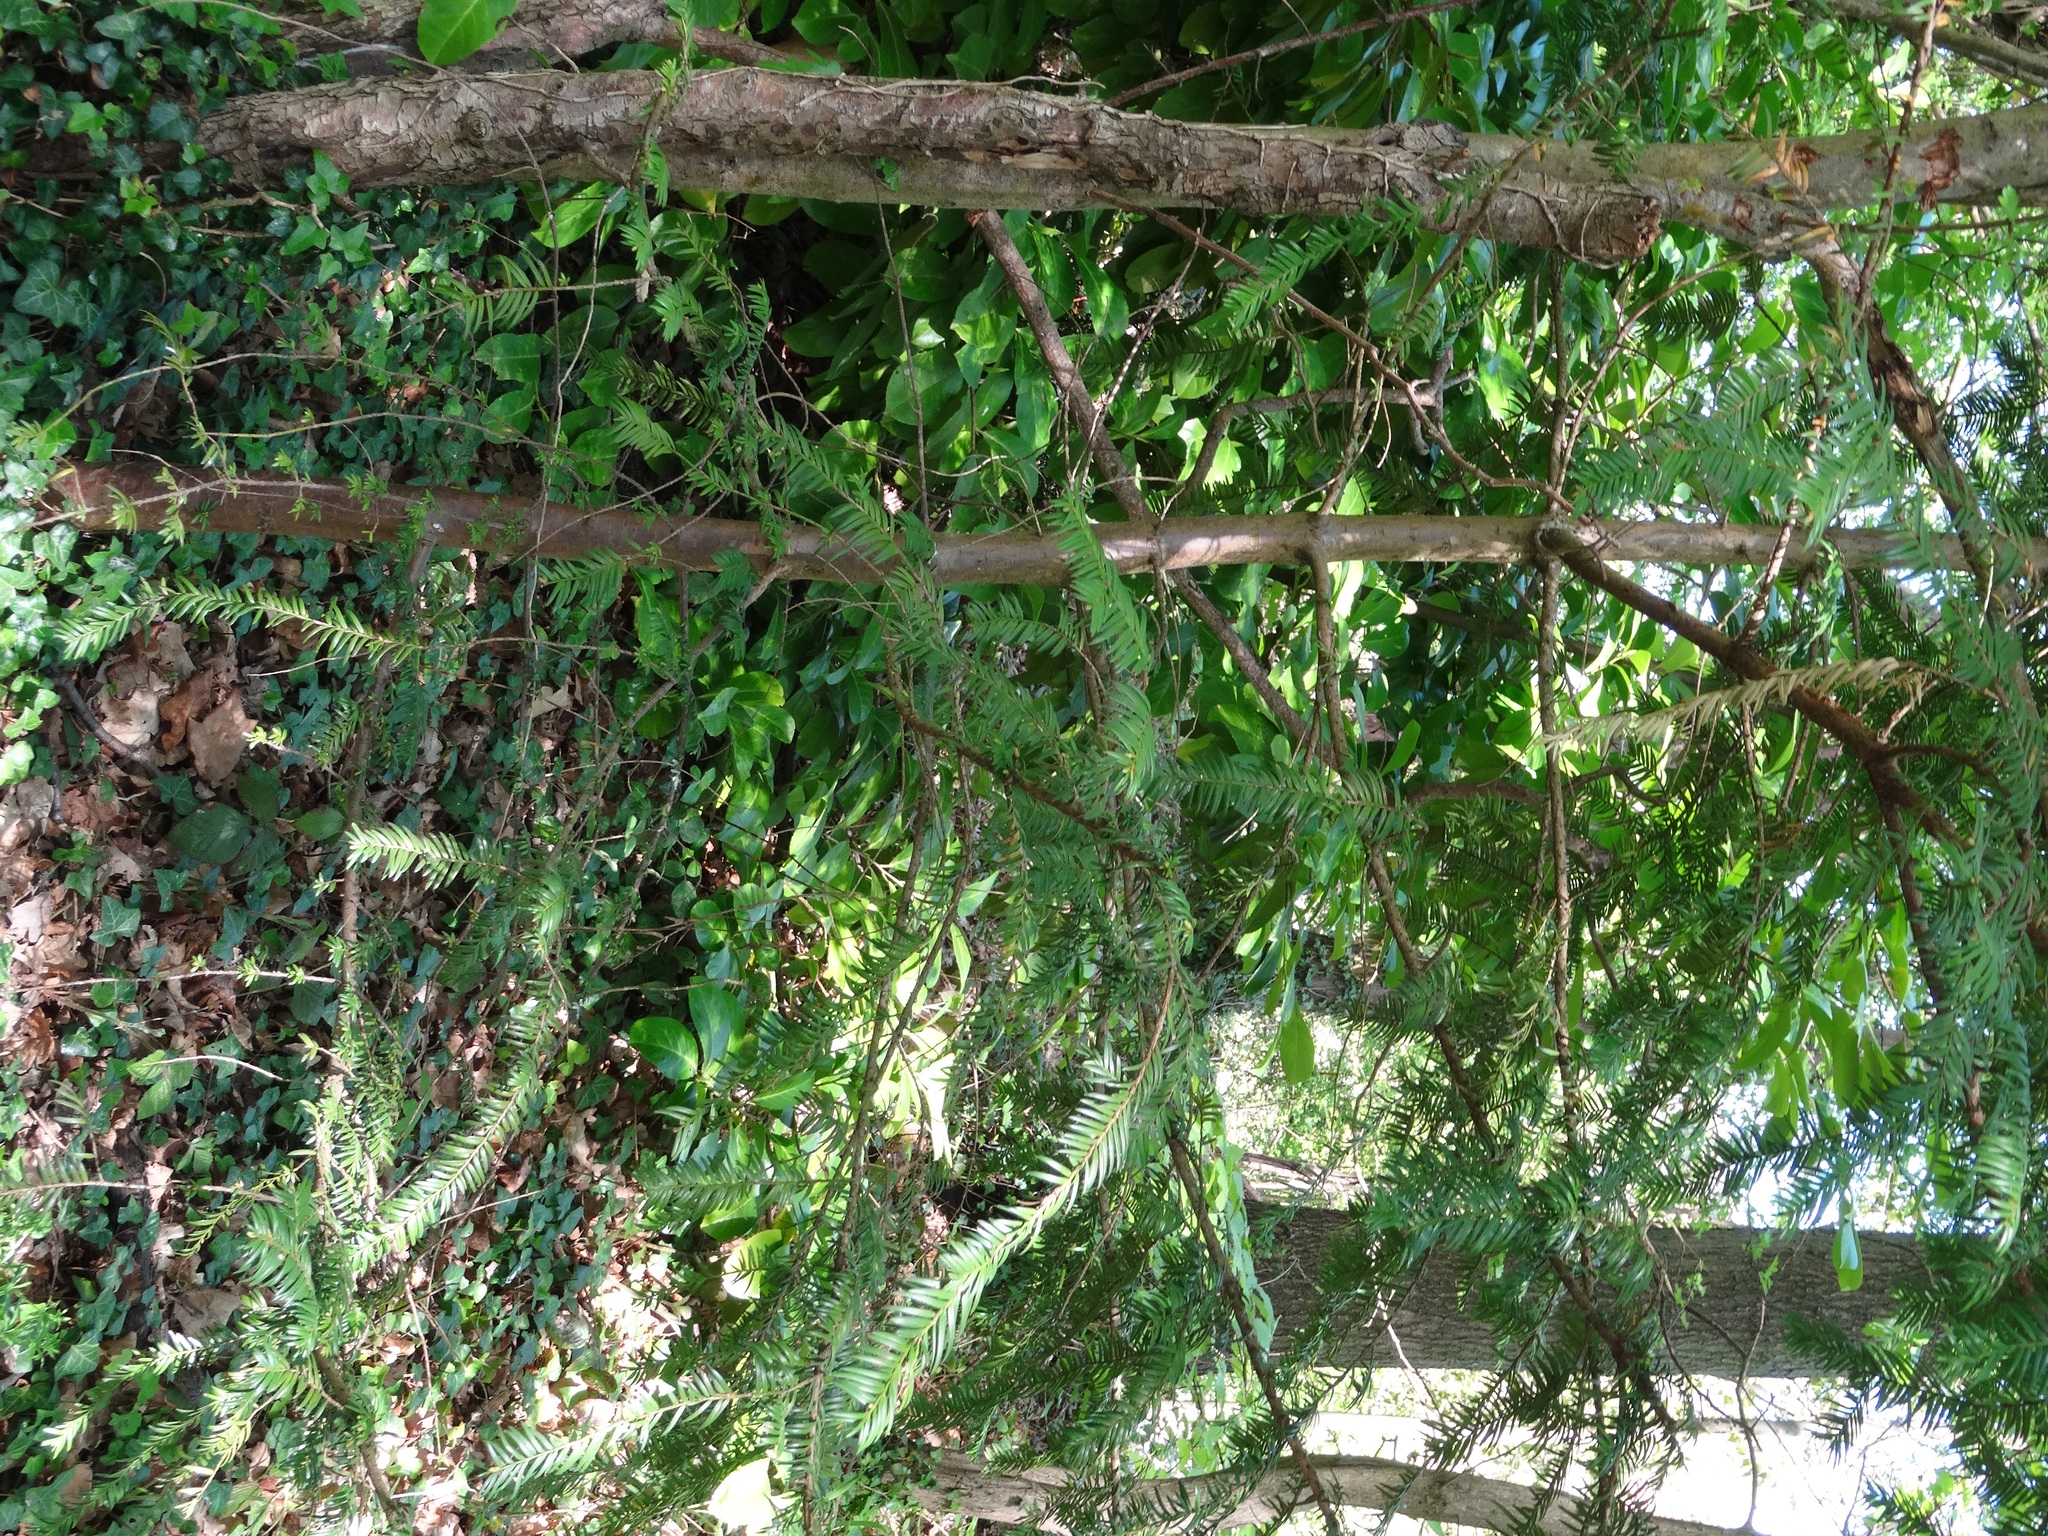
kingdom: Plantae
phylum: Tracheophyta
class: Pinopsida
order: Pinales
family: Taxaceae
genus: Taxus
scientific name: Taxus baccata
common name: Yew
